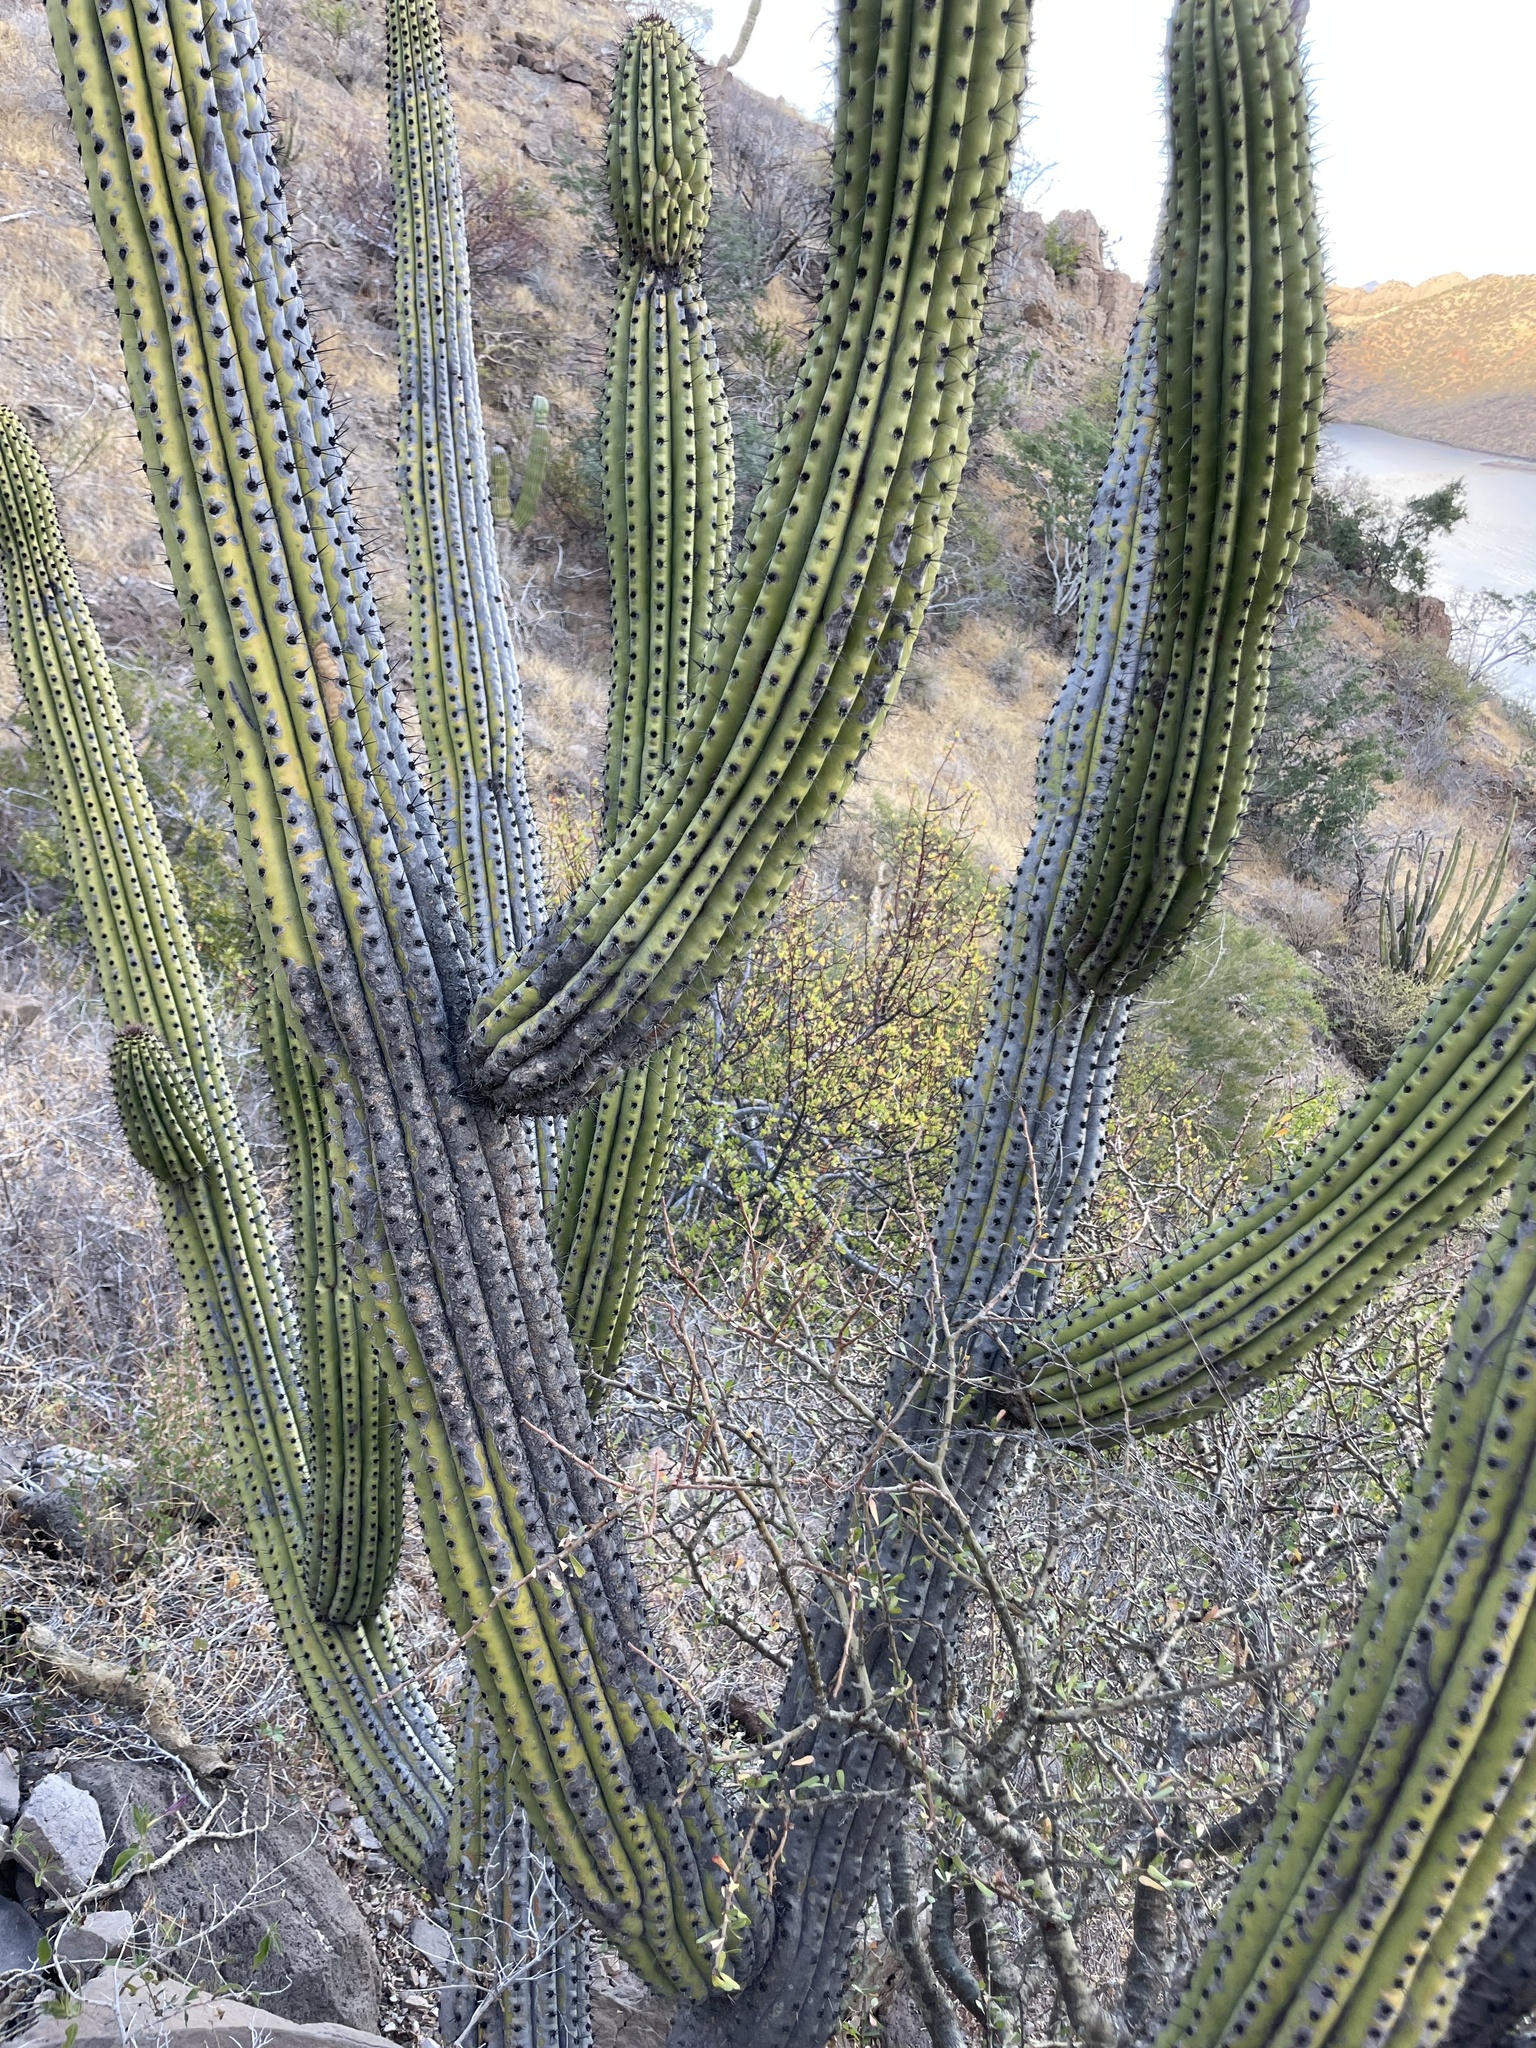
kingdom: Plantae
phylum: Tracheophyta
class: Magnoliopsida
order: Caryophyllales
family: Cactaceae
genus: Stenocereus
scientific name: Stenocereus thurberi
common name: Organ pipe cactus
